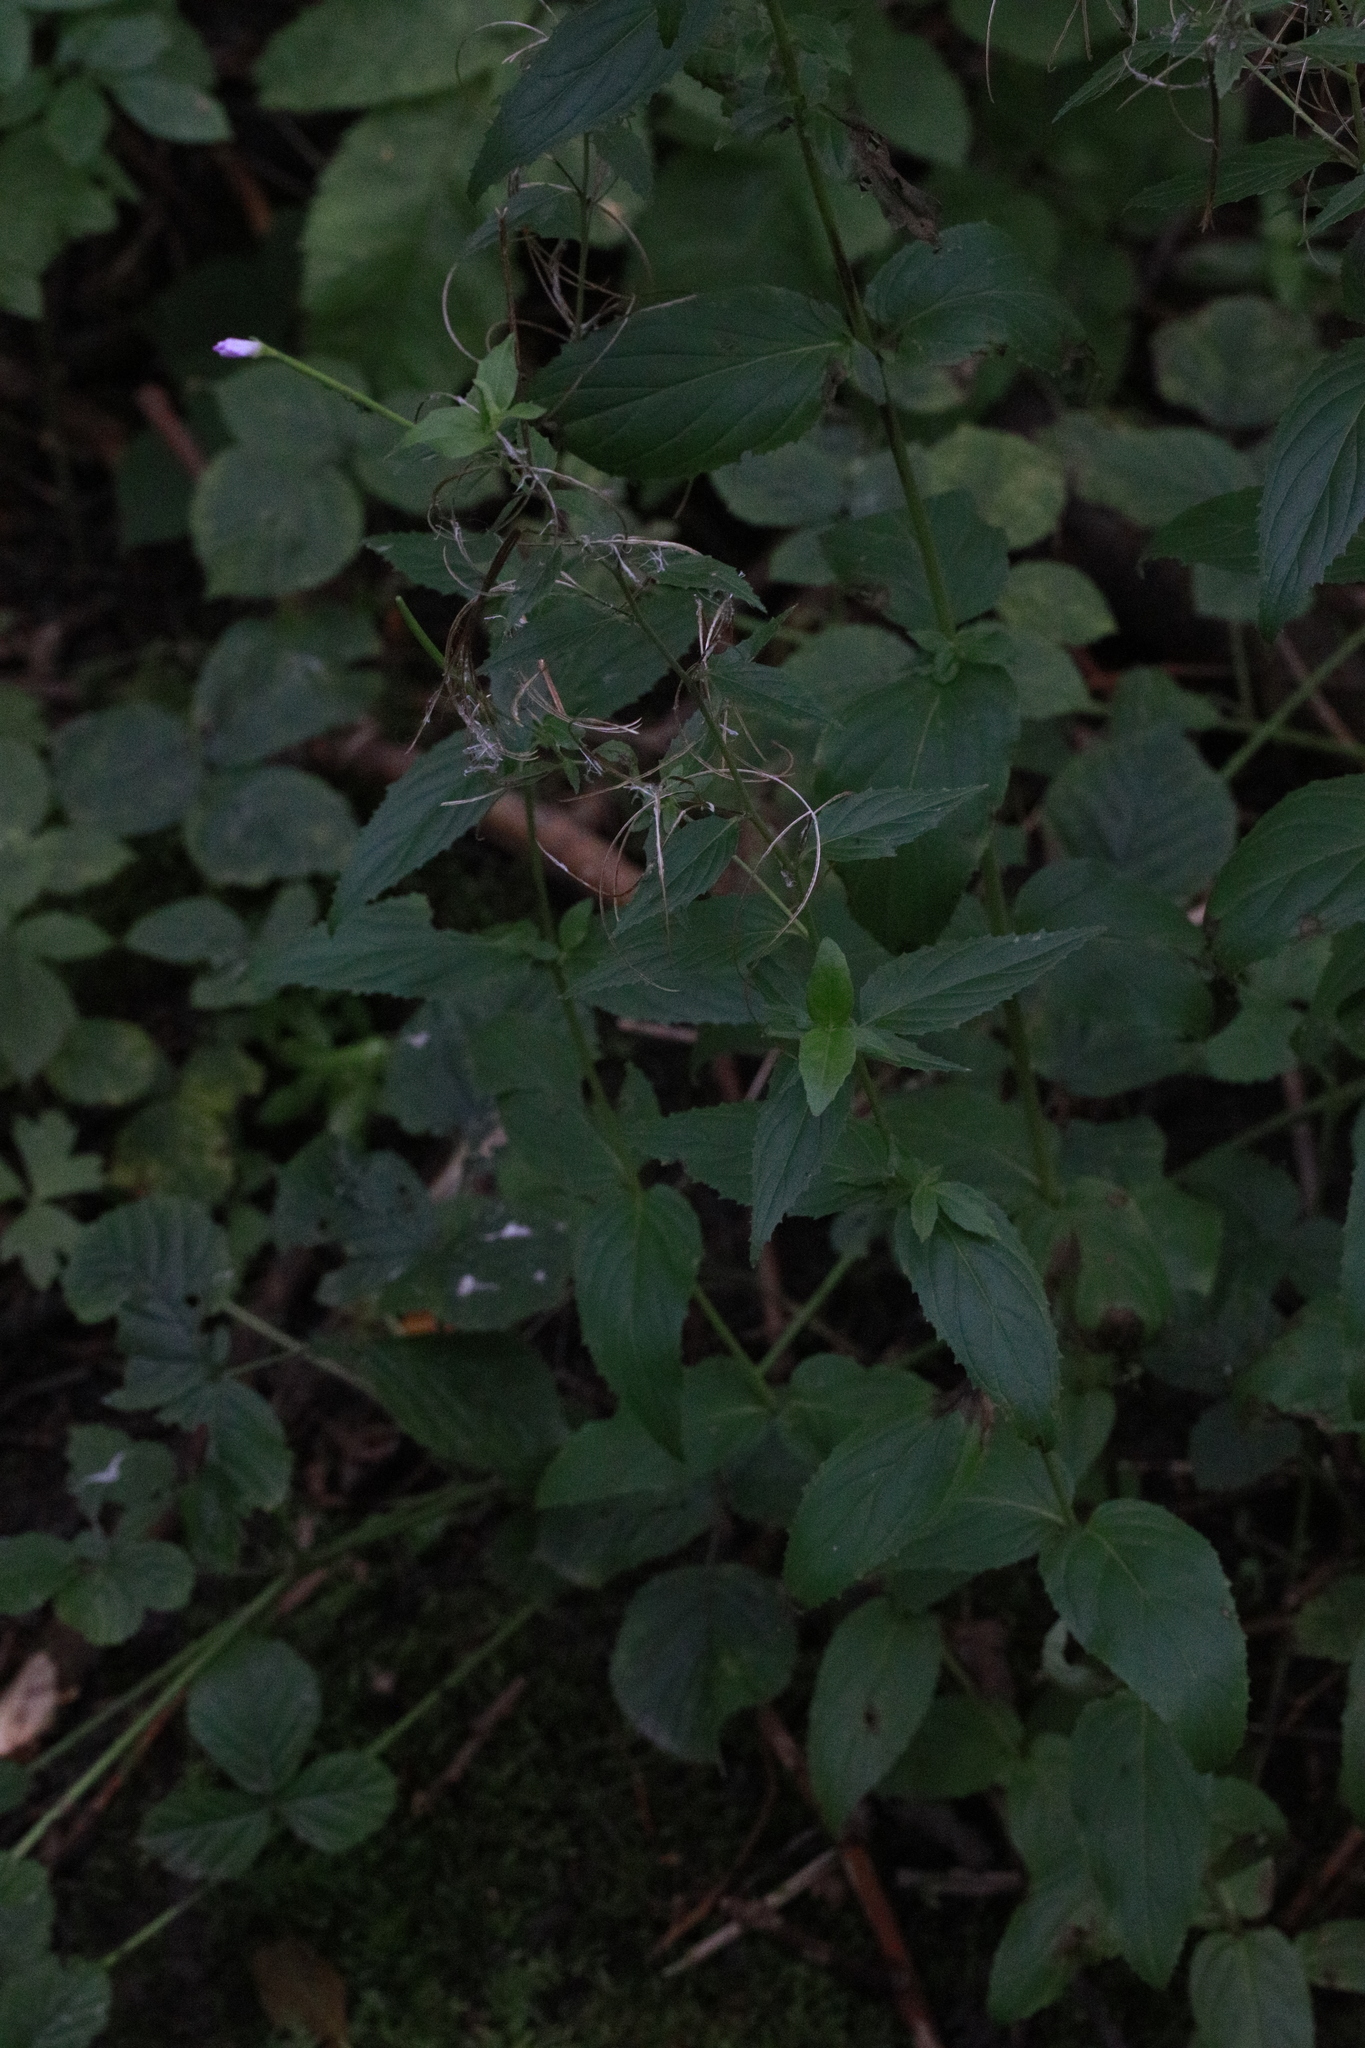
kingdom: Plantae
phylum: Tracheophyta
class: Magnoliopsida
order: Myrtales
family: Onagraceae
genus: Epilobium
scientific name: Epilobium montanum
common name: Broad-leaved willowherb
